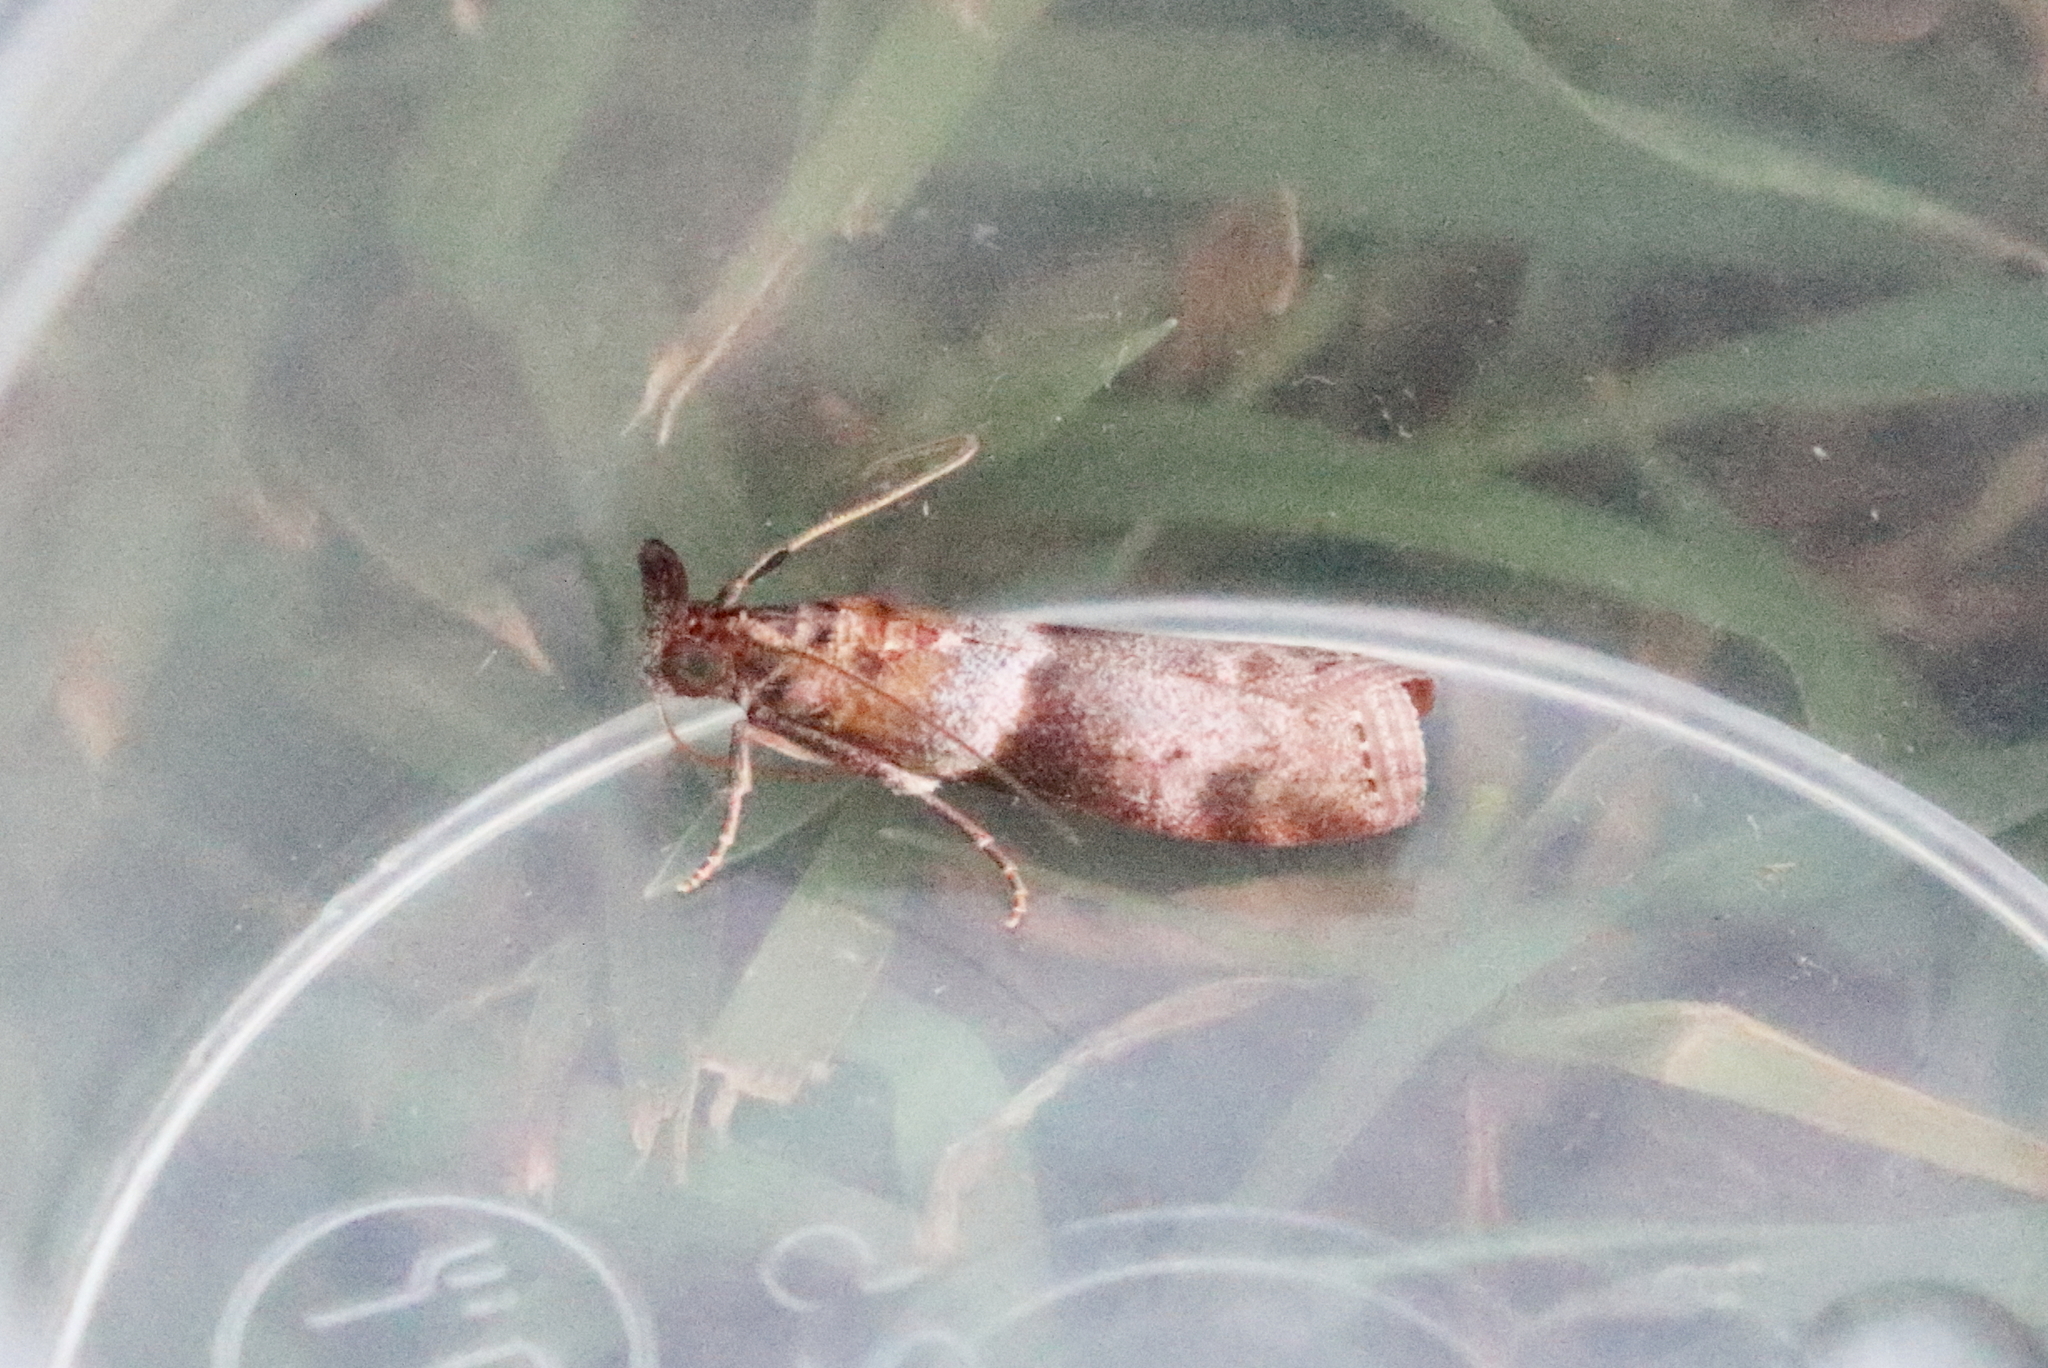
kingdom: Animalia
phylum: Arthropoda
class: Insecta
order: Lepidoptera
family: Pyralidae
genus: Addyme
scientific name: Addyme ferrorubella
